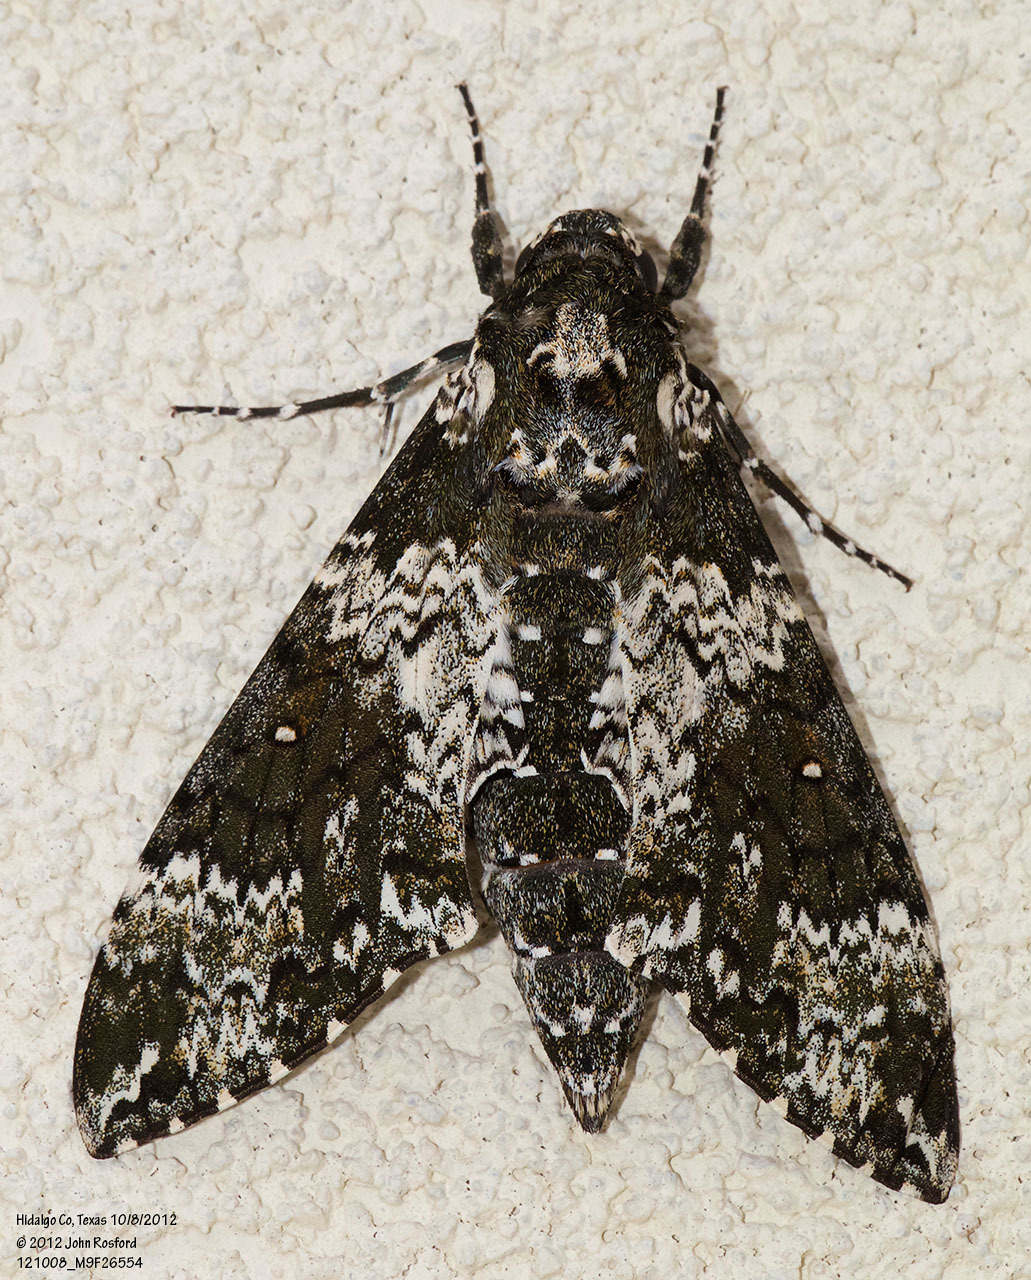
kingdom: Animalia
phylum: Arthropoda
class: Insecta
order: Lepidoptera
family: Sphingidae
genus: Manduca
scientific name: Manduca rustica
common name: Rustic sphinx
